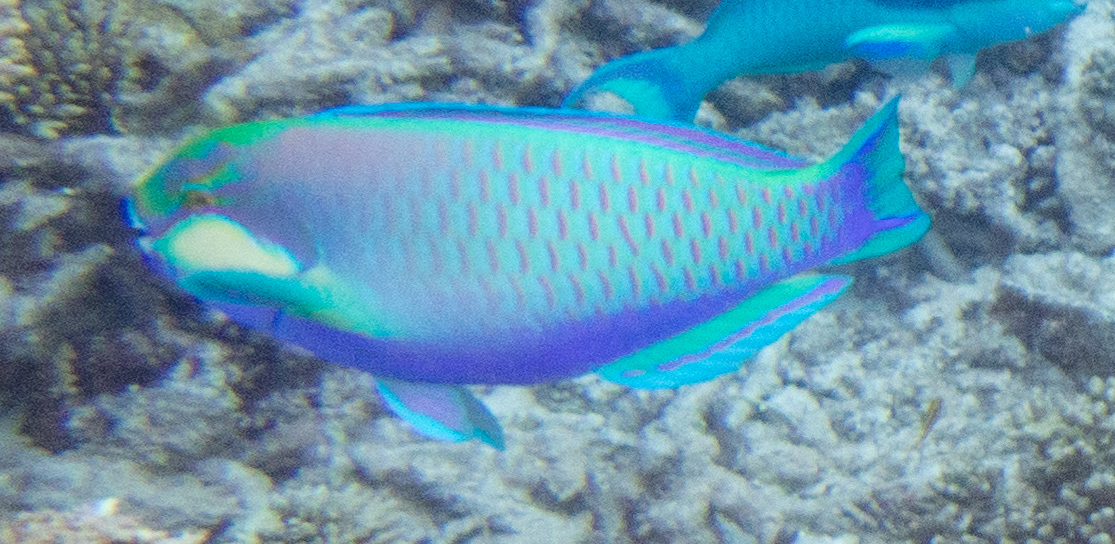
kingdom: Animalia
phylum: Chordata
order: Perciformes
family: Scaridae
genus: Chlorurus
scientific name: Chlorurus bleekeri
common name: Bleeker's parrotfish
